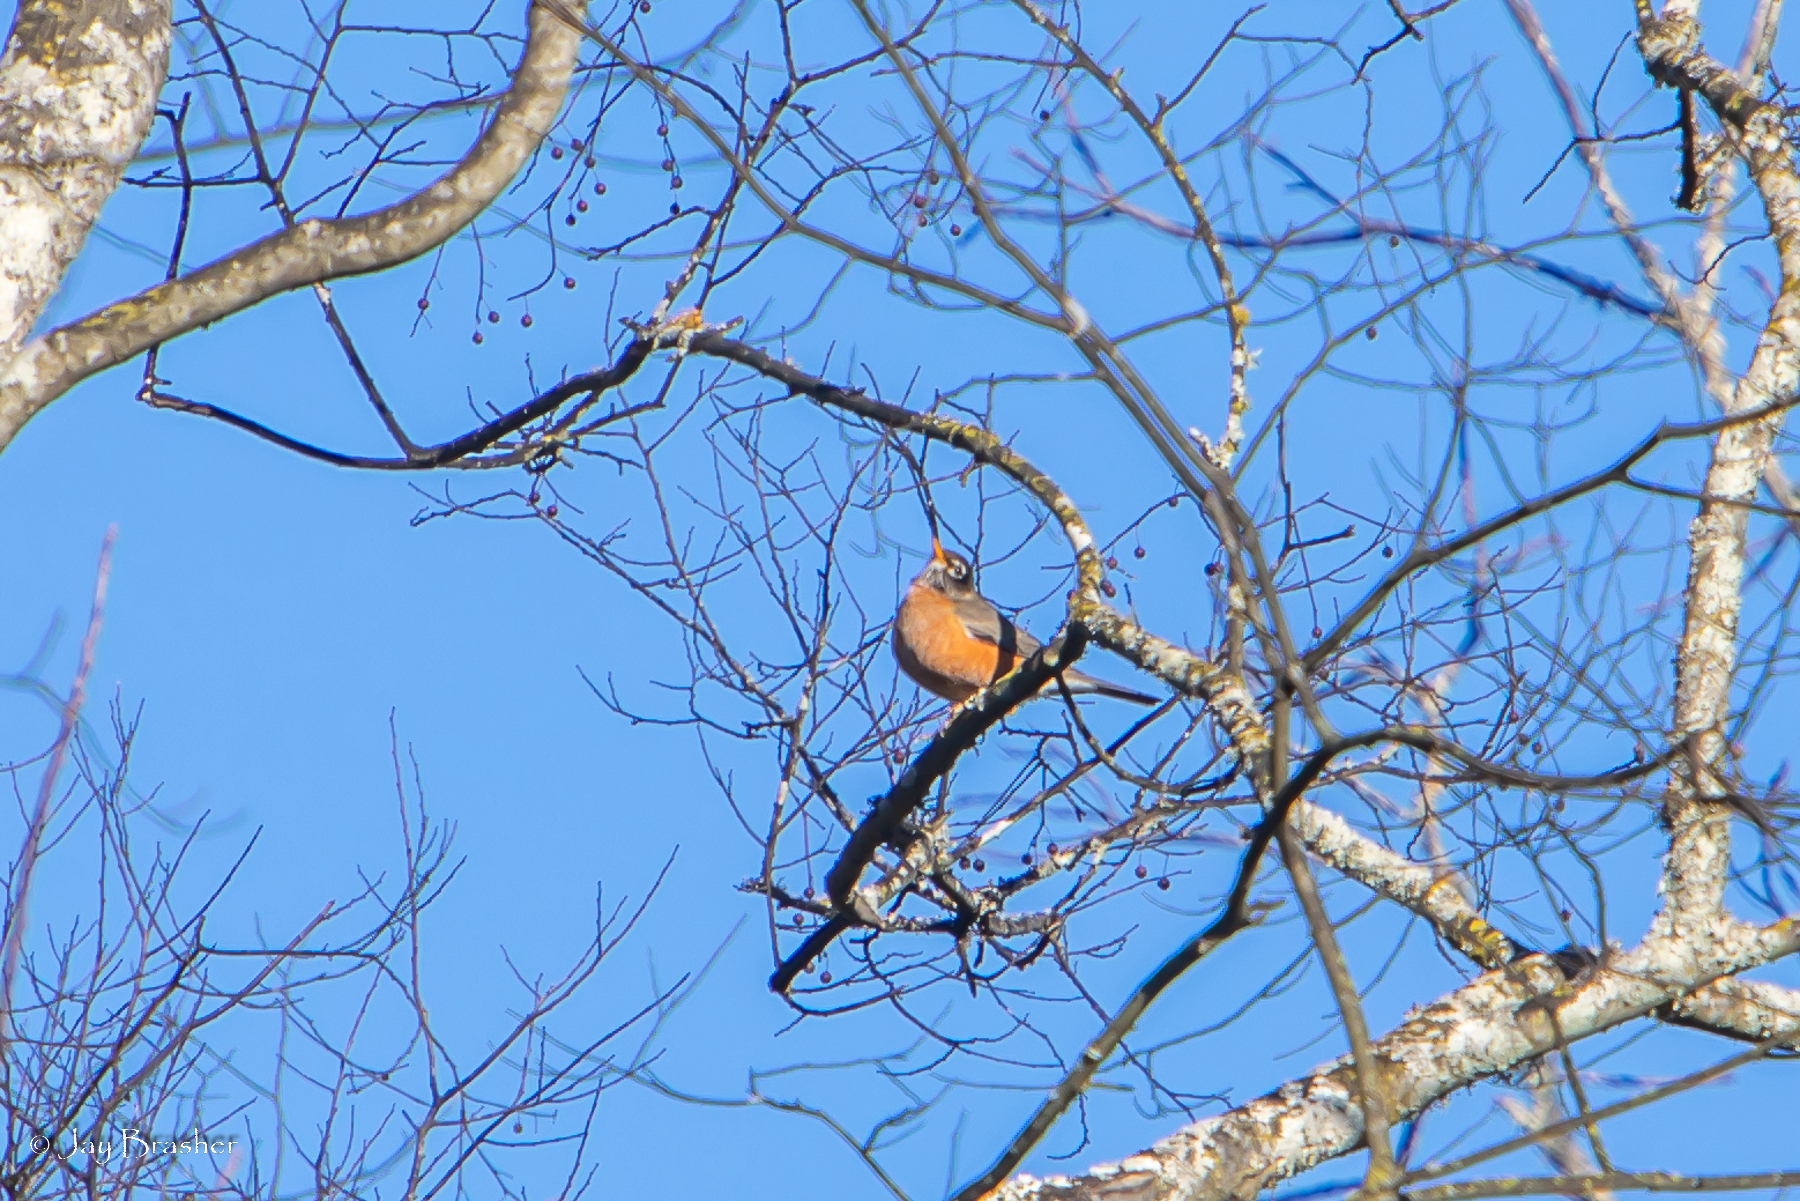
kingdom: Animalia
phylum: Chordata
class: Aves
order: Passeriformes
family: Turdidae
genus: Turdus
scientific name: Turdus migratorius
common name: American robin
